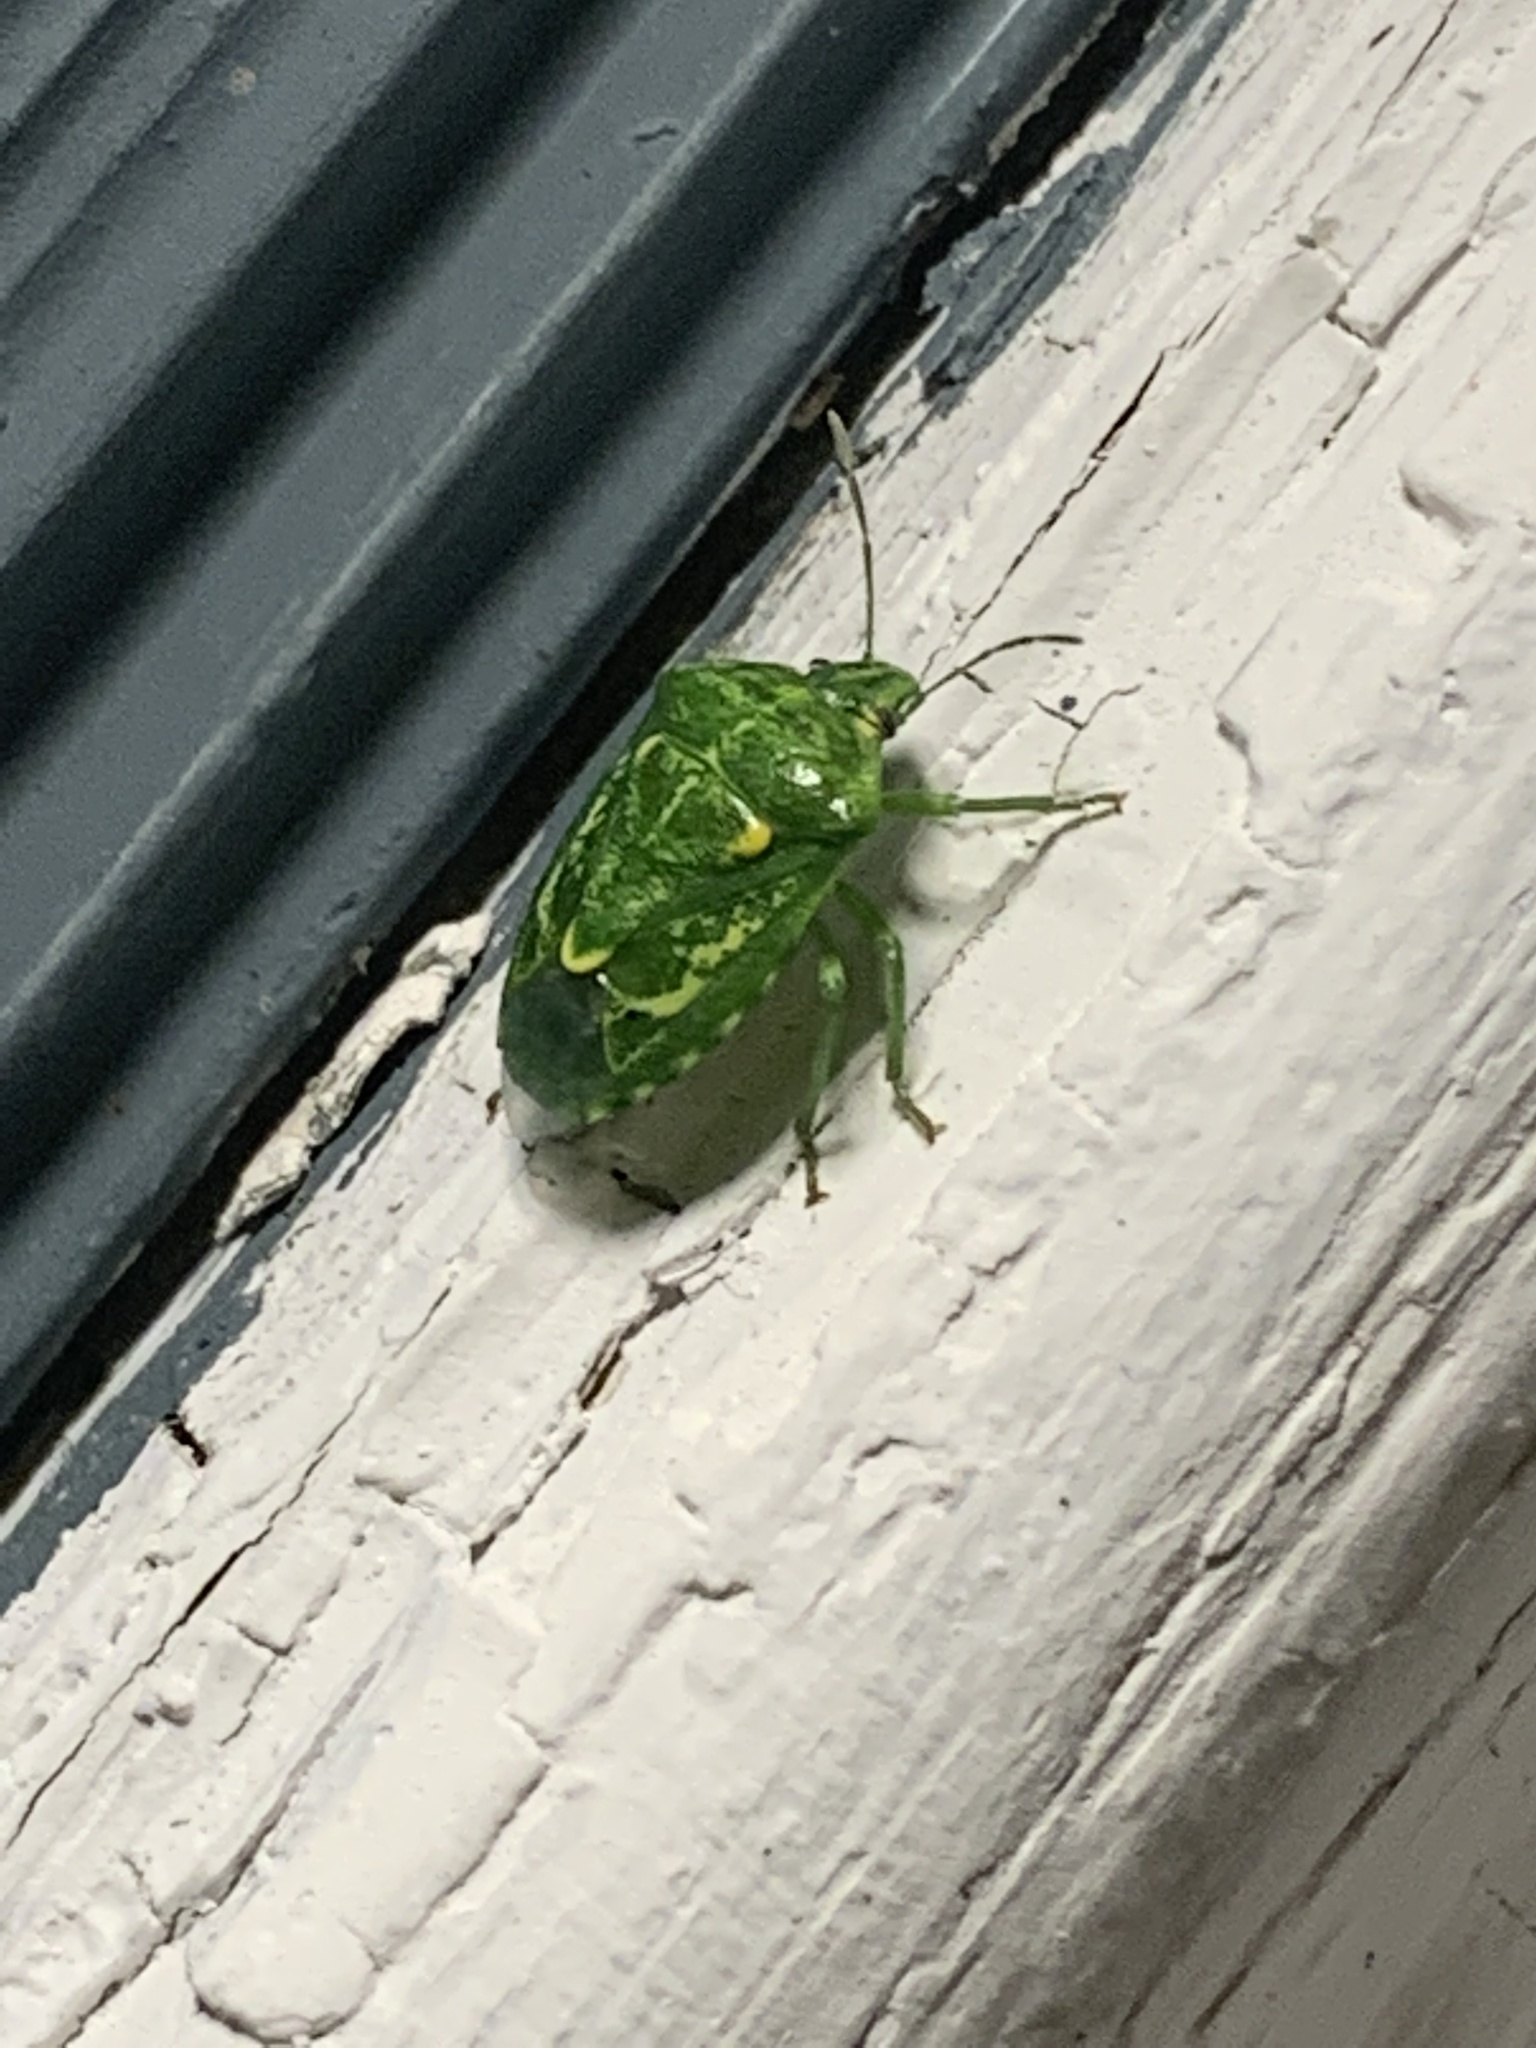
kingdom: Animalia
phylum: Arthropoda
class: Insecta
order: Hemiptera
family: Pentatomidae
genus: Banasa
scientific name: Banasa euchlora
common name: Cedar berry bug
